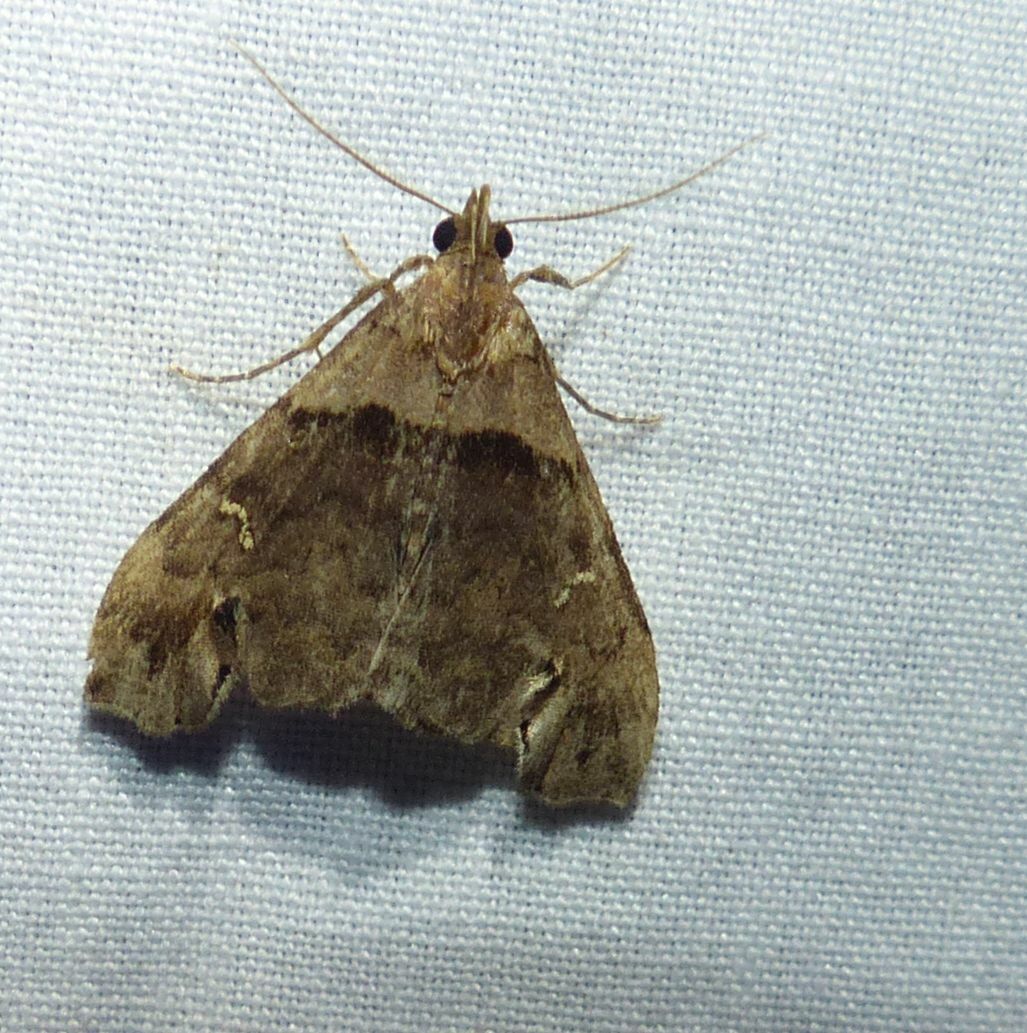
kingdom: Animalia
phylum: Arthropoda
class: Insecta
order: Lepidoptera
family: Erebidae
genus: Lascoria
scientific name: Lascoria ambigualis
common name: Ambiguous moth
